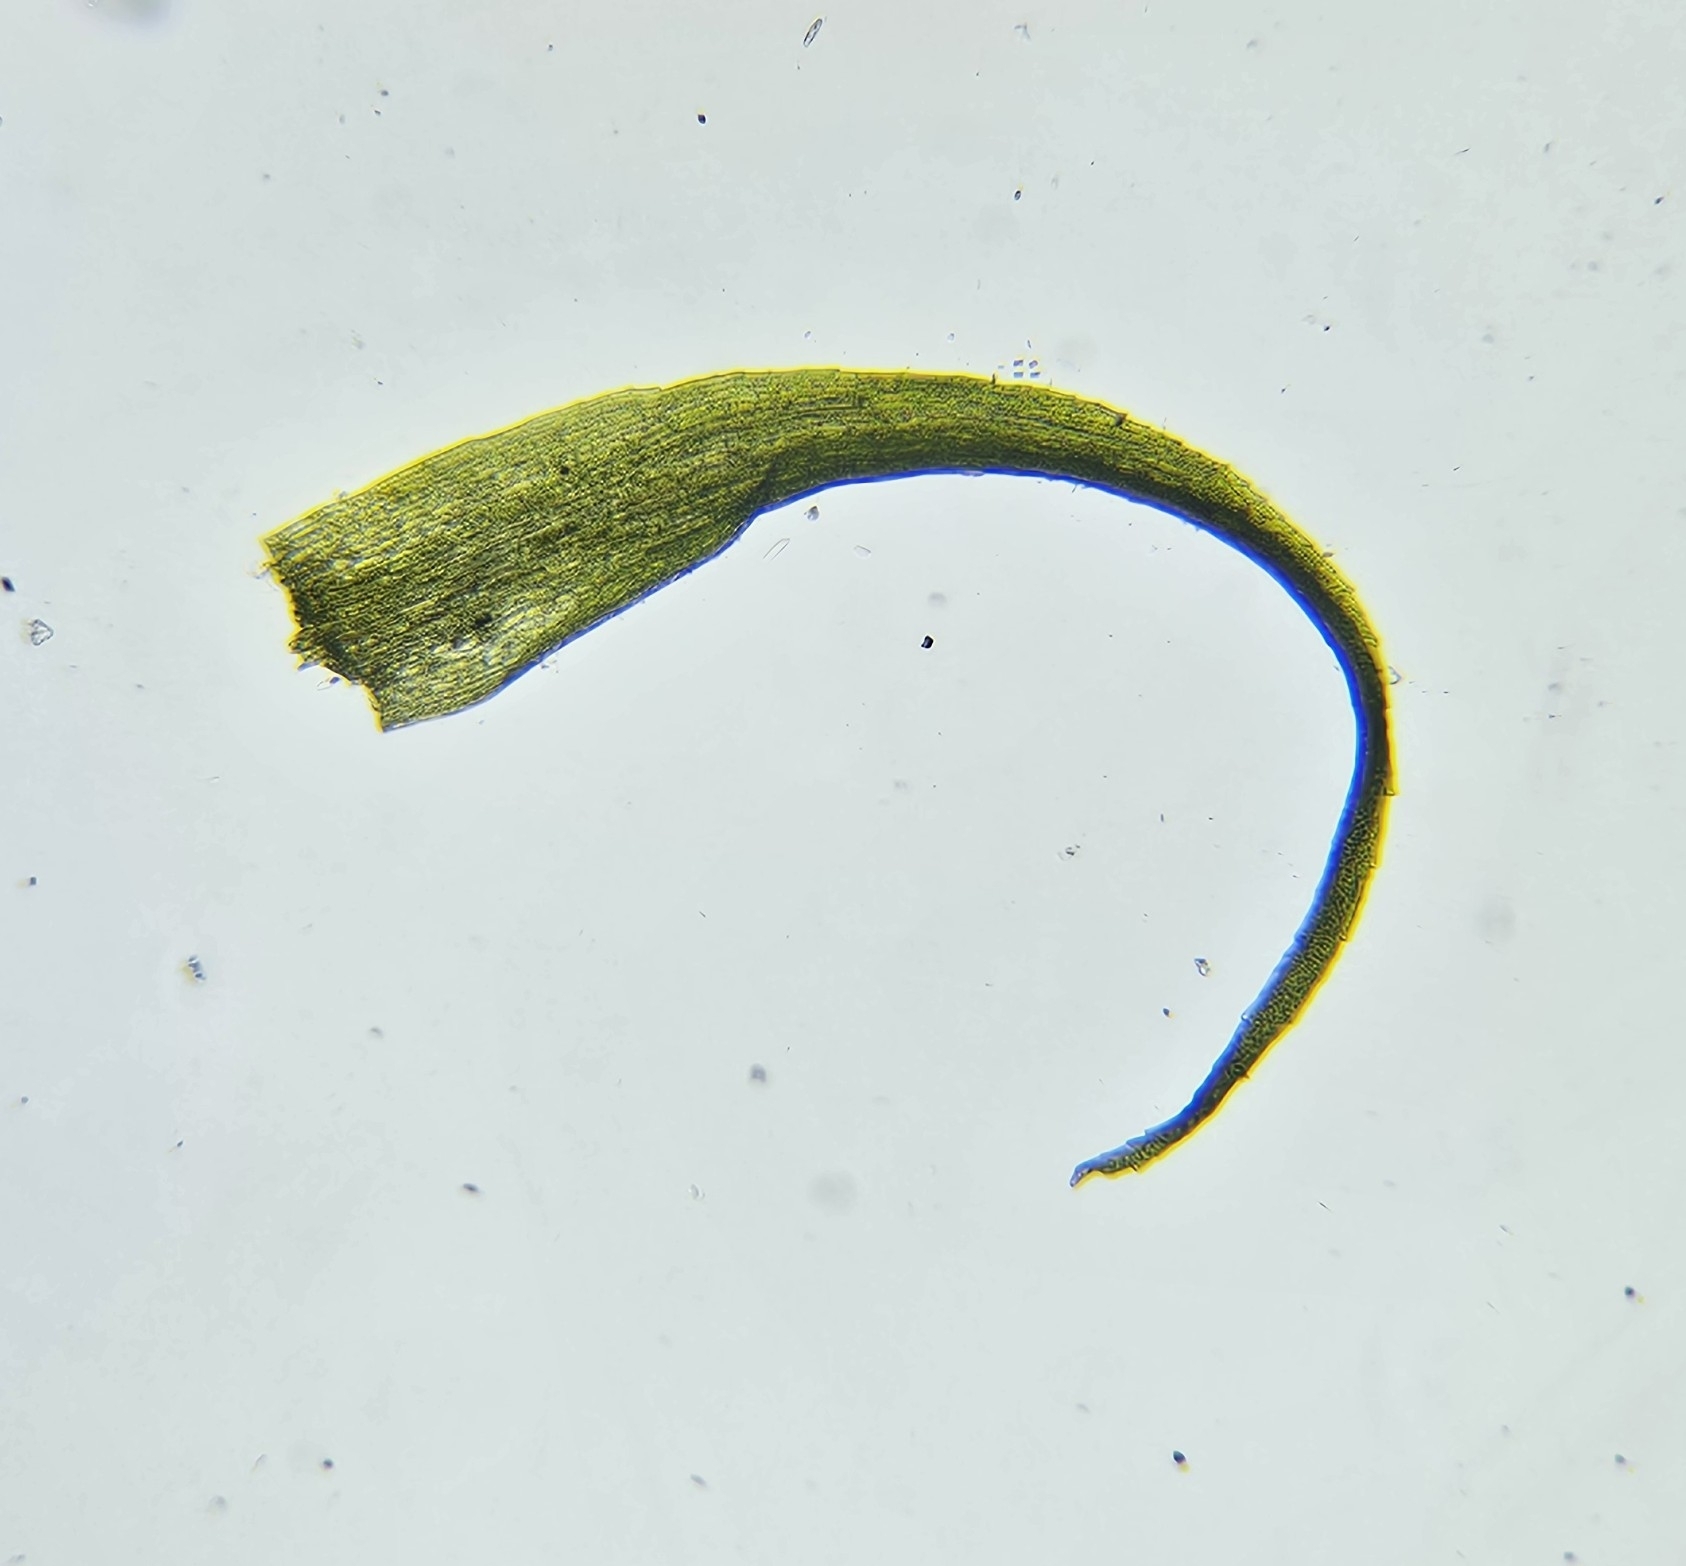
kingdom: Plantae
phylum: Bryophyta
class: Bryopsida
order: Dicranales
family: Dicranellaceae
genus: Dicranella
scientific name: Dicranella heteromalla
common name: Silky forklet moss
